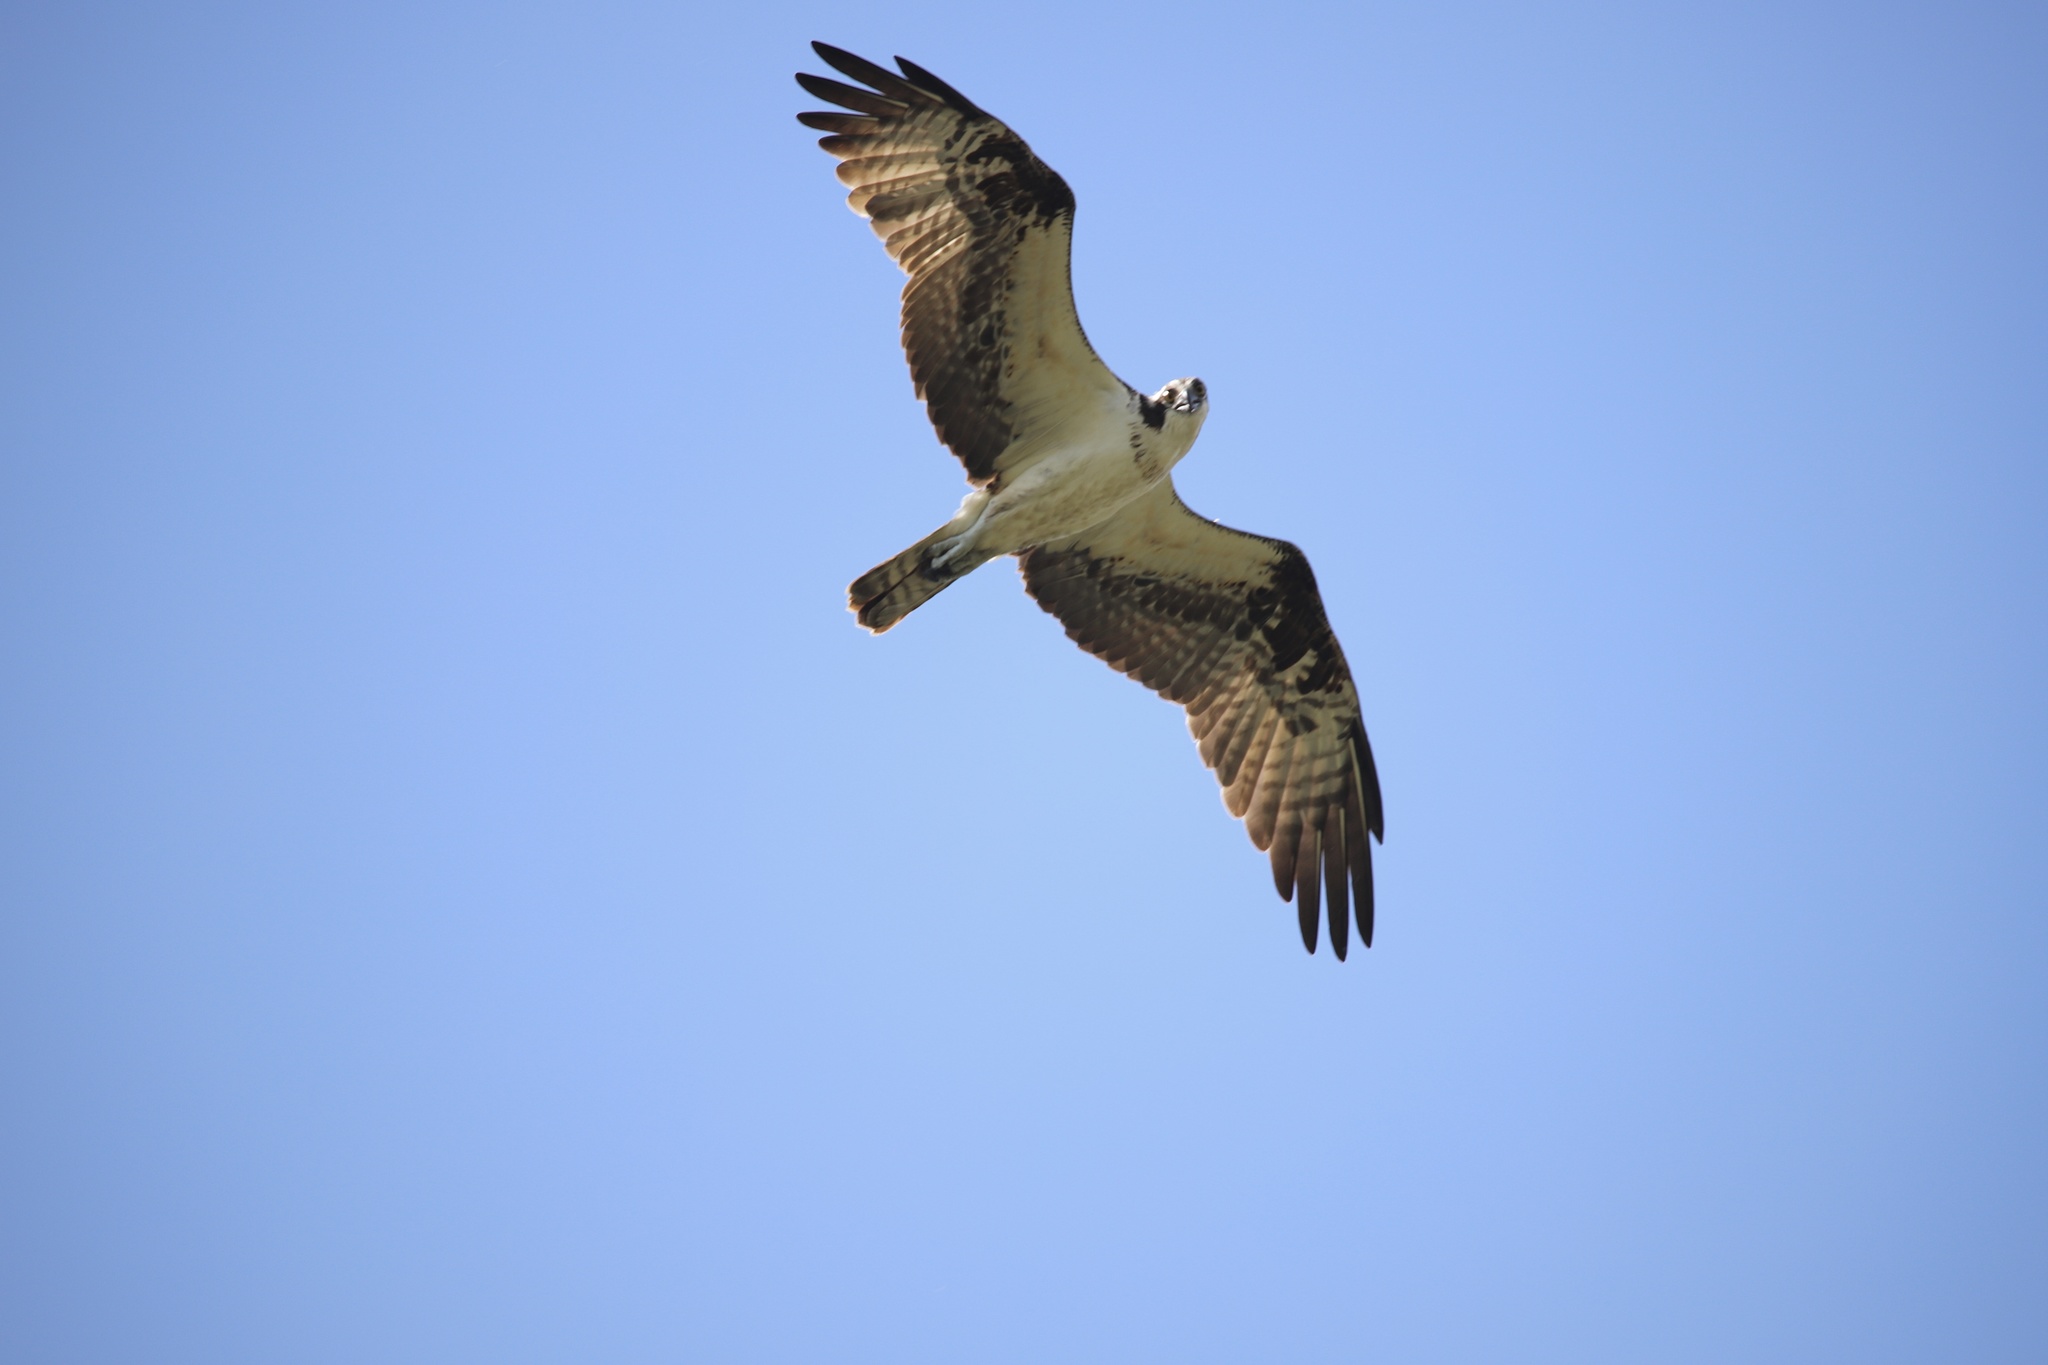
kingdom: Animalia
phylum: Chordata
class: Aves
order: Accipitriformes
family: Pandionidae
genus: Pandion
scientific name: Pandion haliaetus
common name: Osprey
